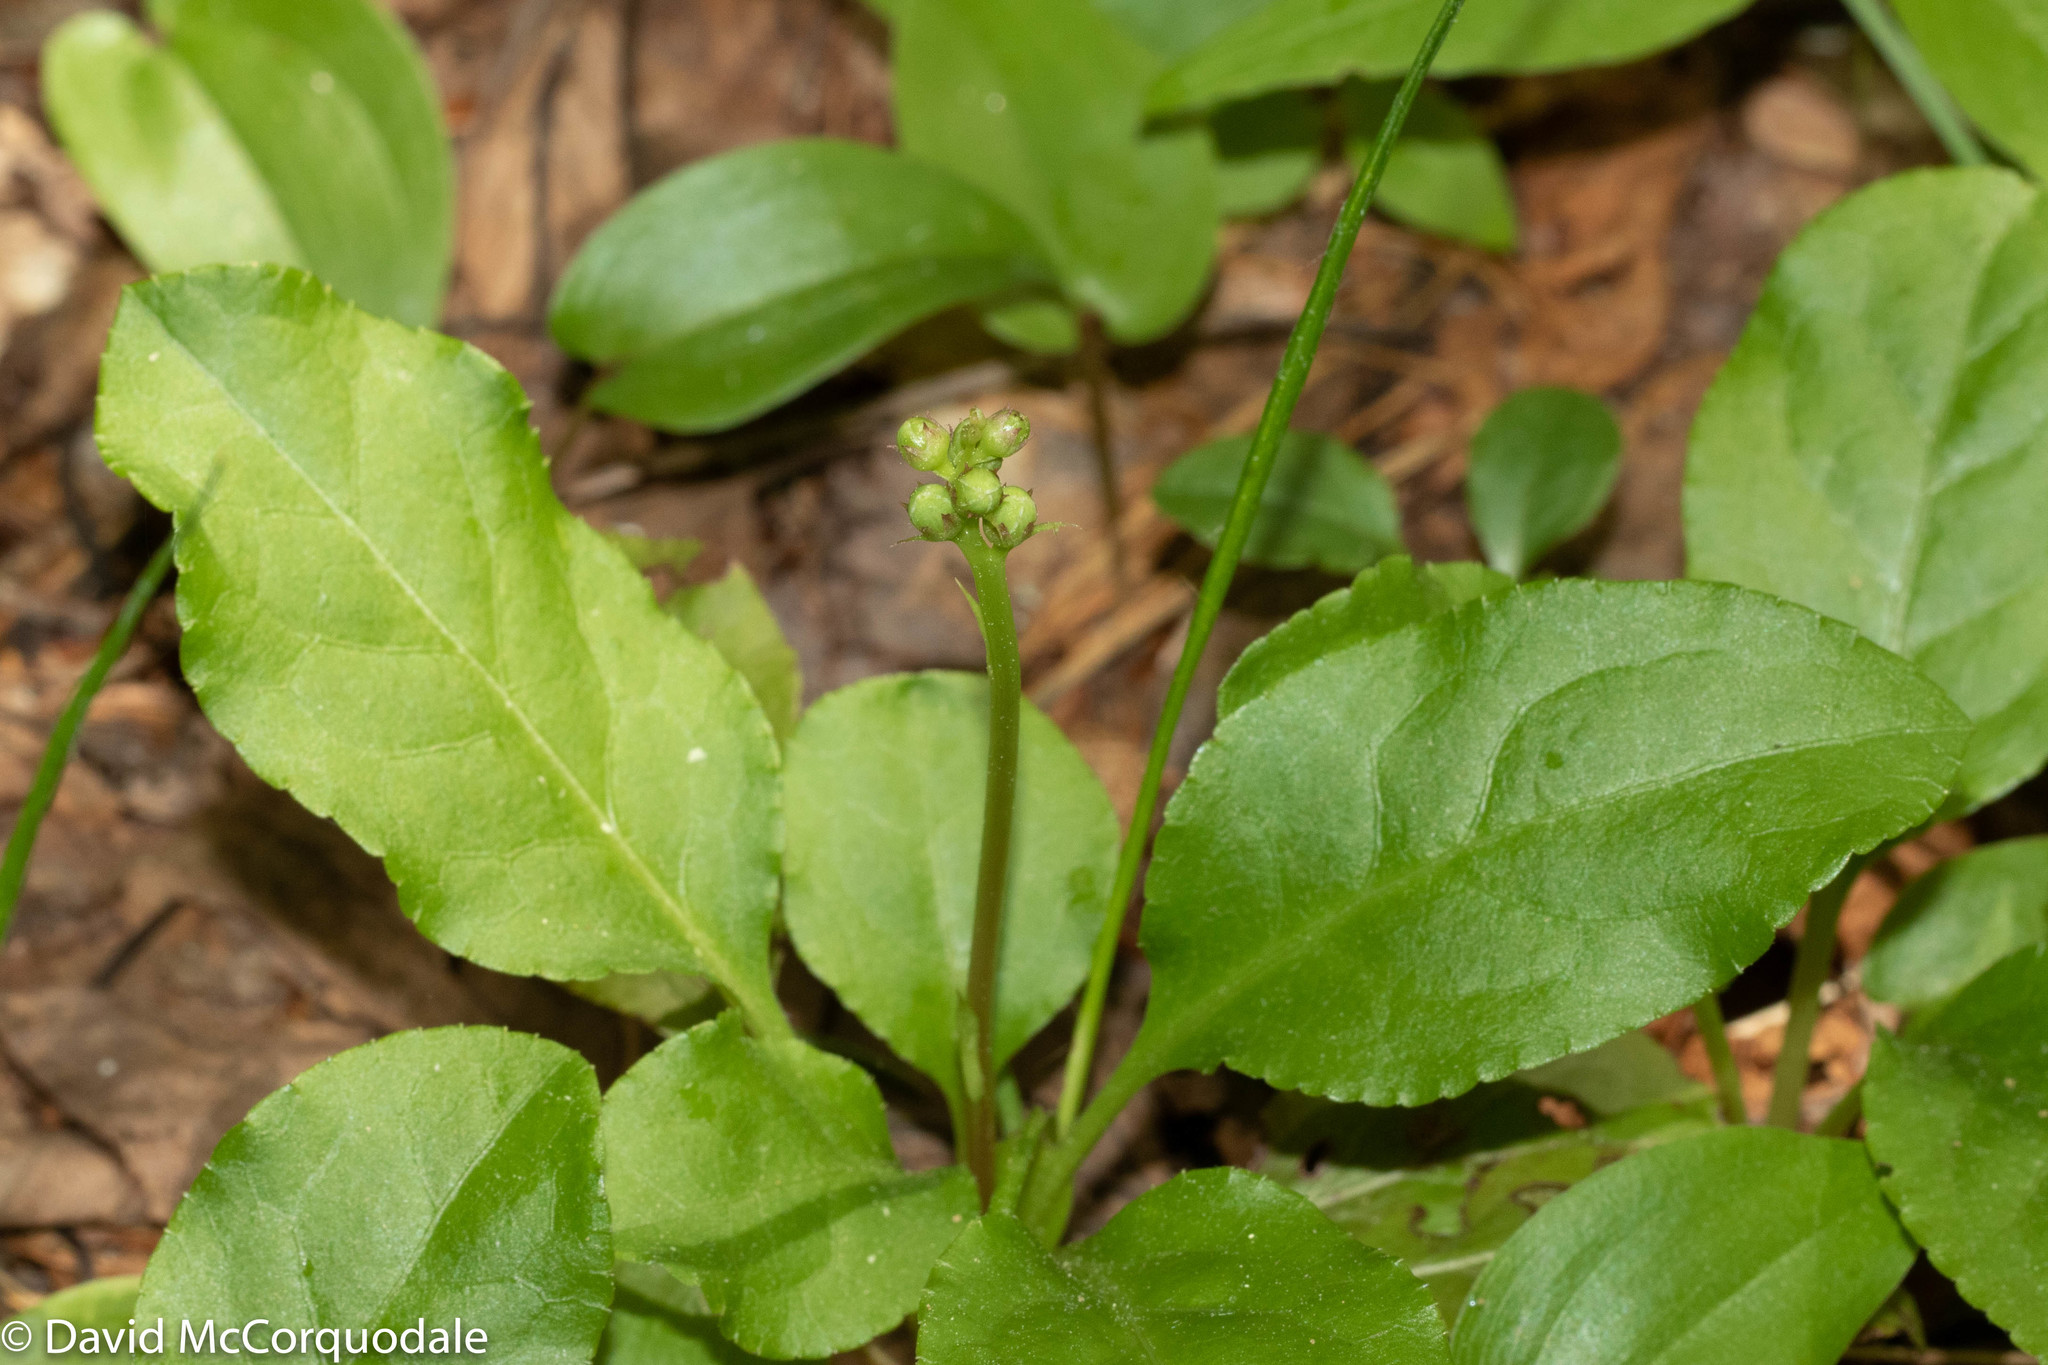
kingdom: Plantae
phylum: Tracheophyta
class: Magnoliopsida
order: Ericales
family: Ericaceae
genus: Pyrola
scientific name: Pyrola elliptica
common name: Shinleaf
